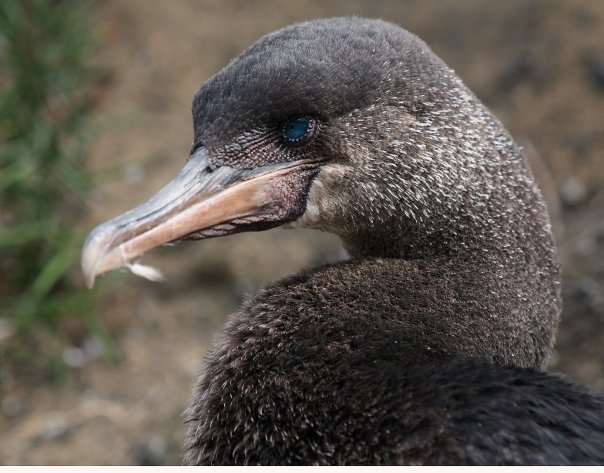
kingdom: Animalia
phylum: Chordata
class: Aves
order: Suliformes
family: Phalacrocoracidae
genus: Phalacrocorax
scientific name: Phalacrocorax harrisi
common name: Flightless cormorant
